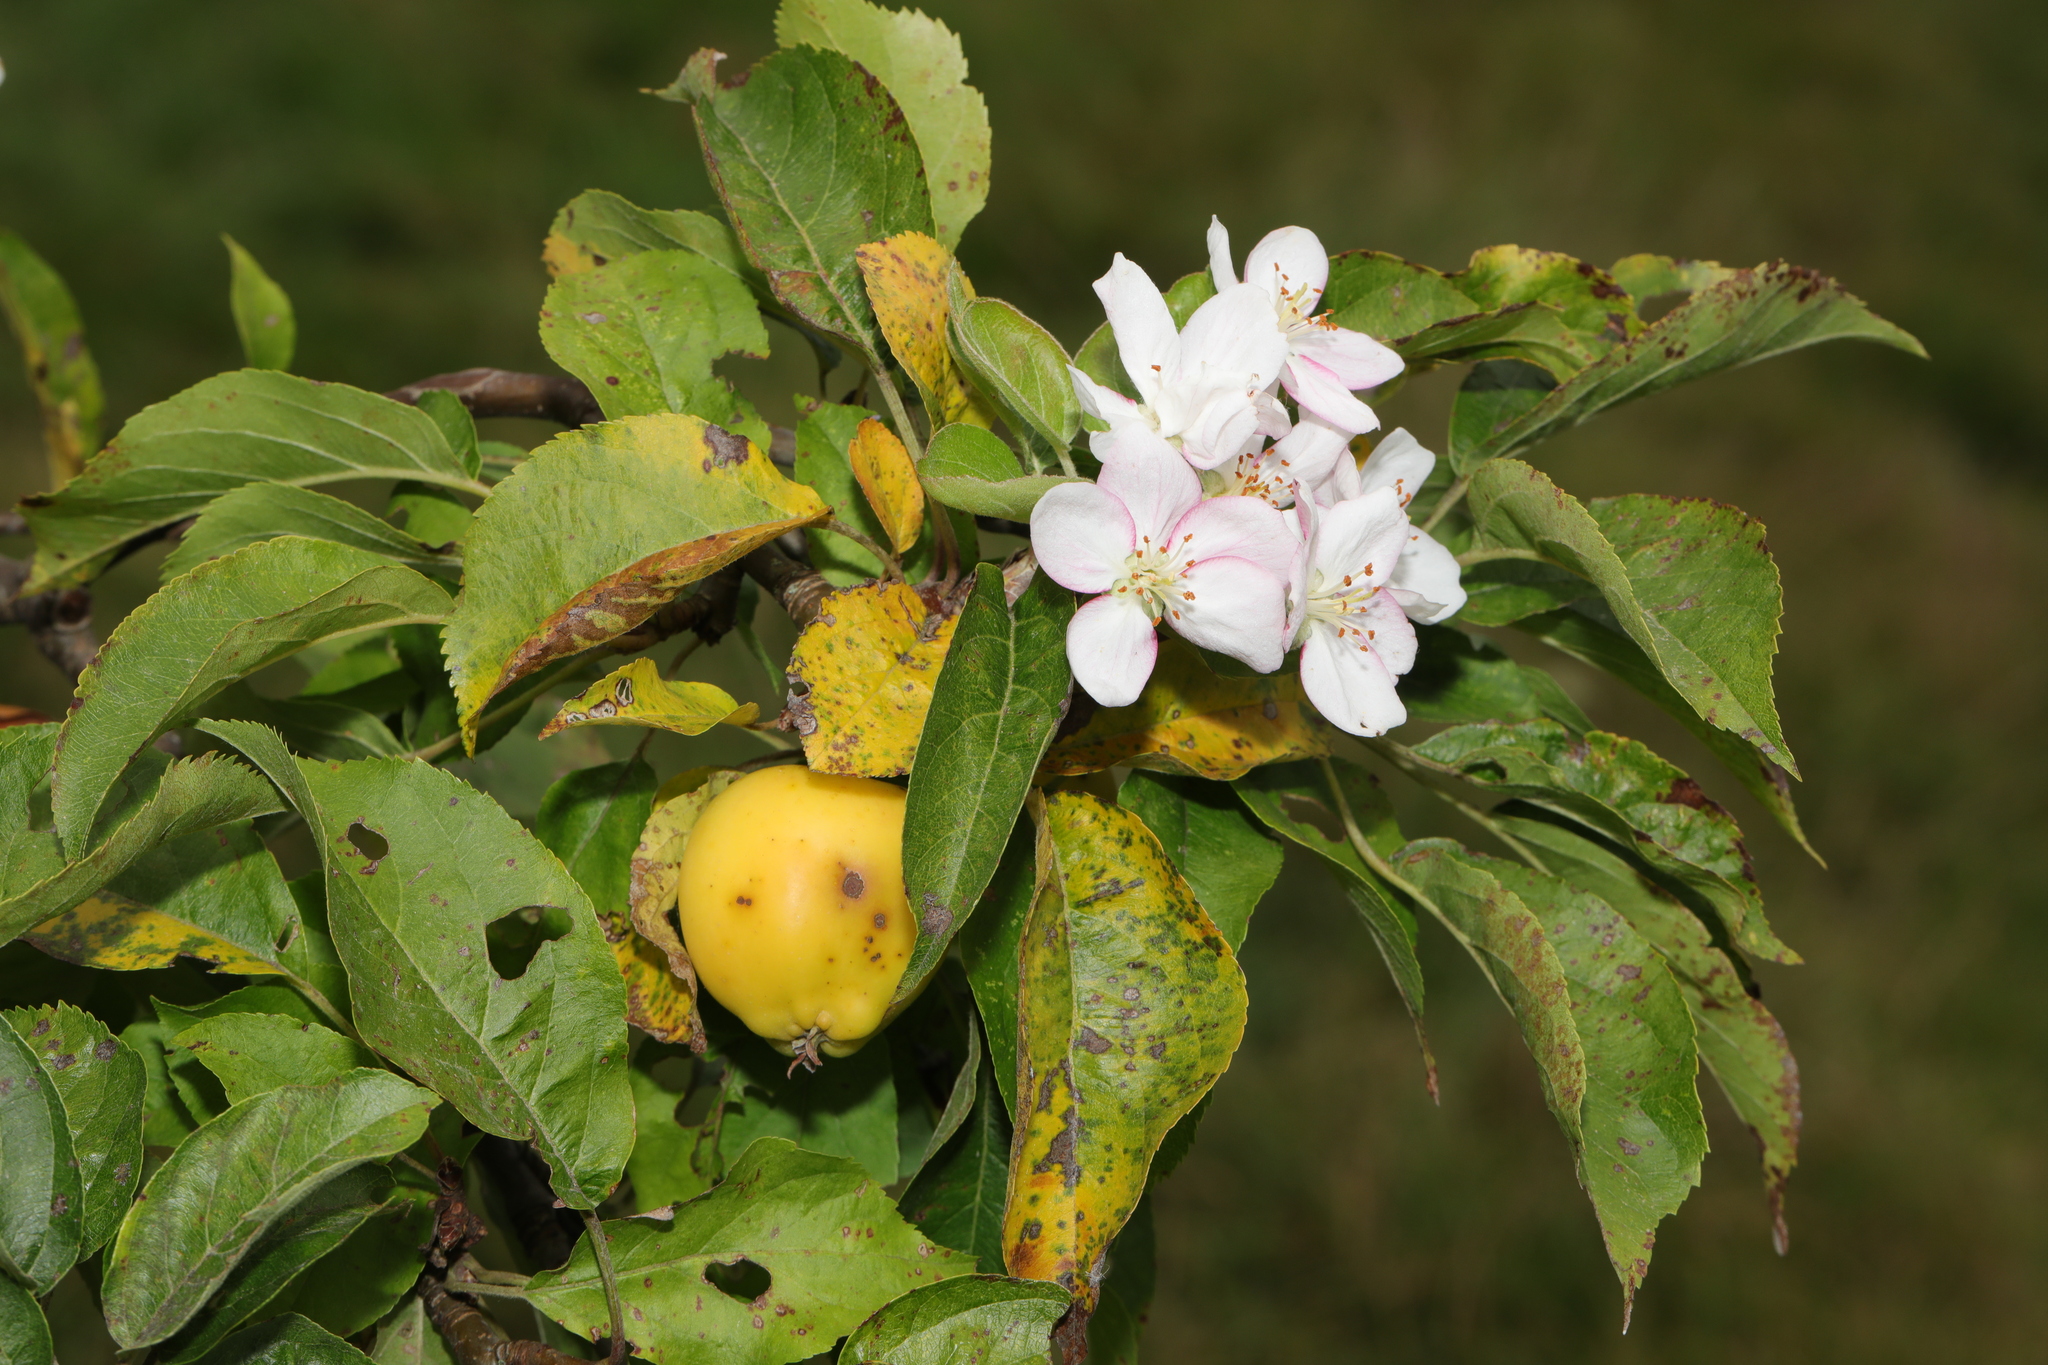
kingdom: Plantae
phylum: Tracheophyta
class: Magnoliopsida
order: Rosales
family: Rosaceae
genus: Malus
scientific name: Malus domestica
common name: Apple
